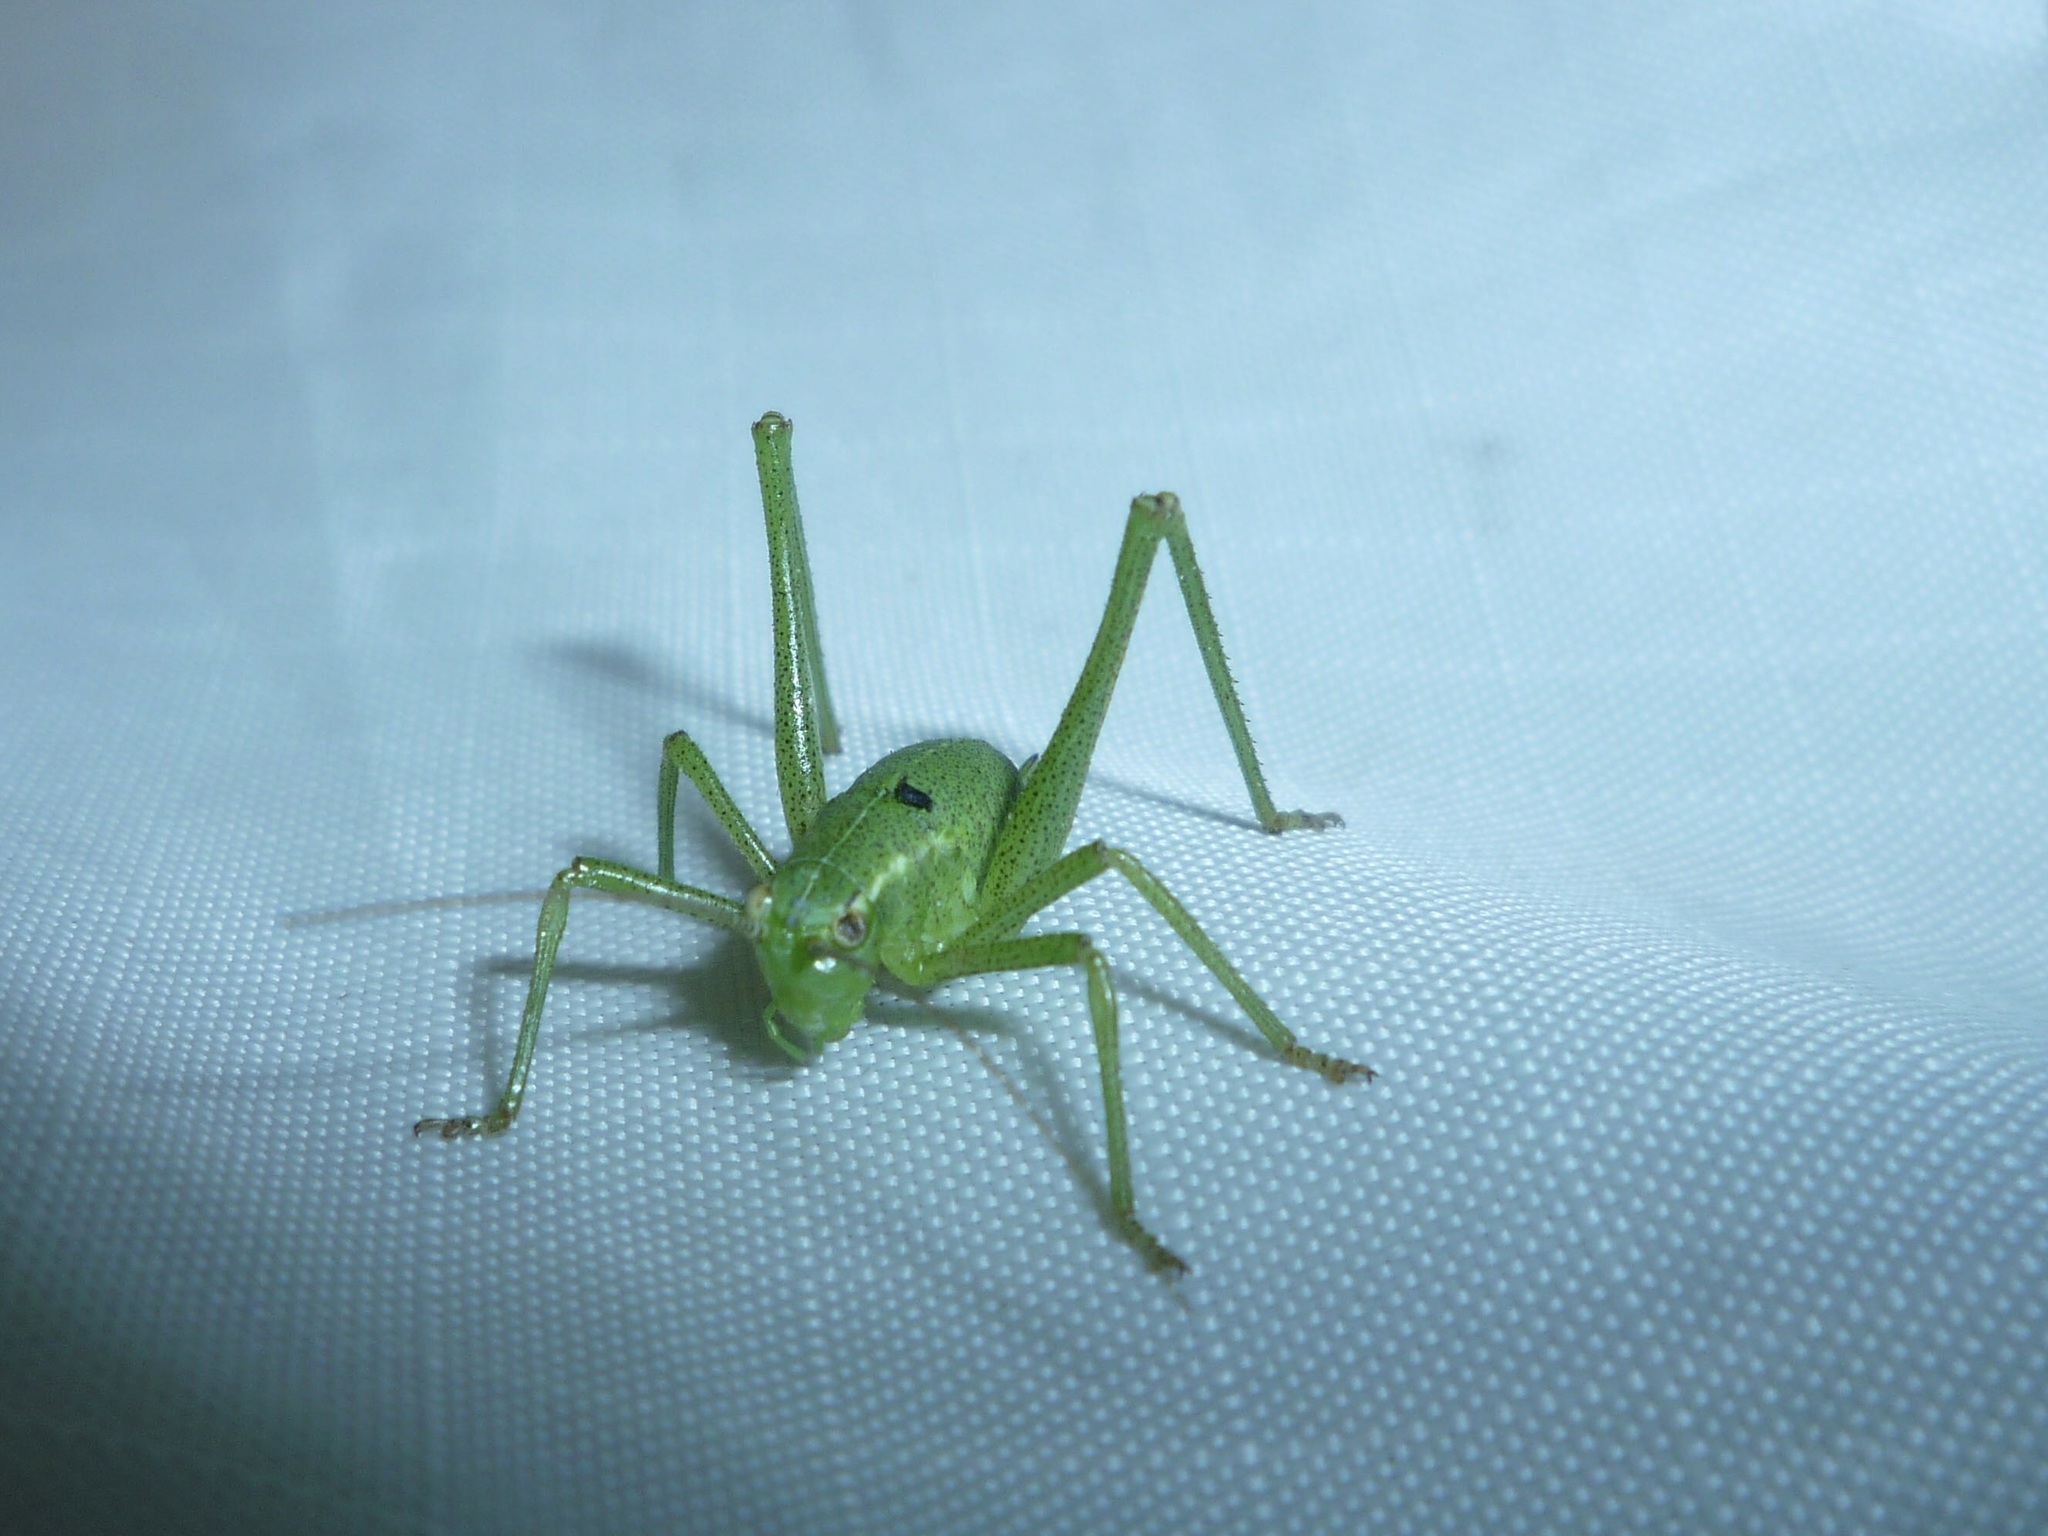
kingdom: Animalia
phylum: Arthropoda
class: Insecta
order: Orthoptera
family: Tettigoniidae
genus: Leptophyes
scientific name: Leptophyes punctatissima
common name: Speckled bush-cricket
